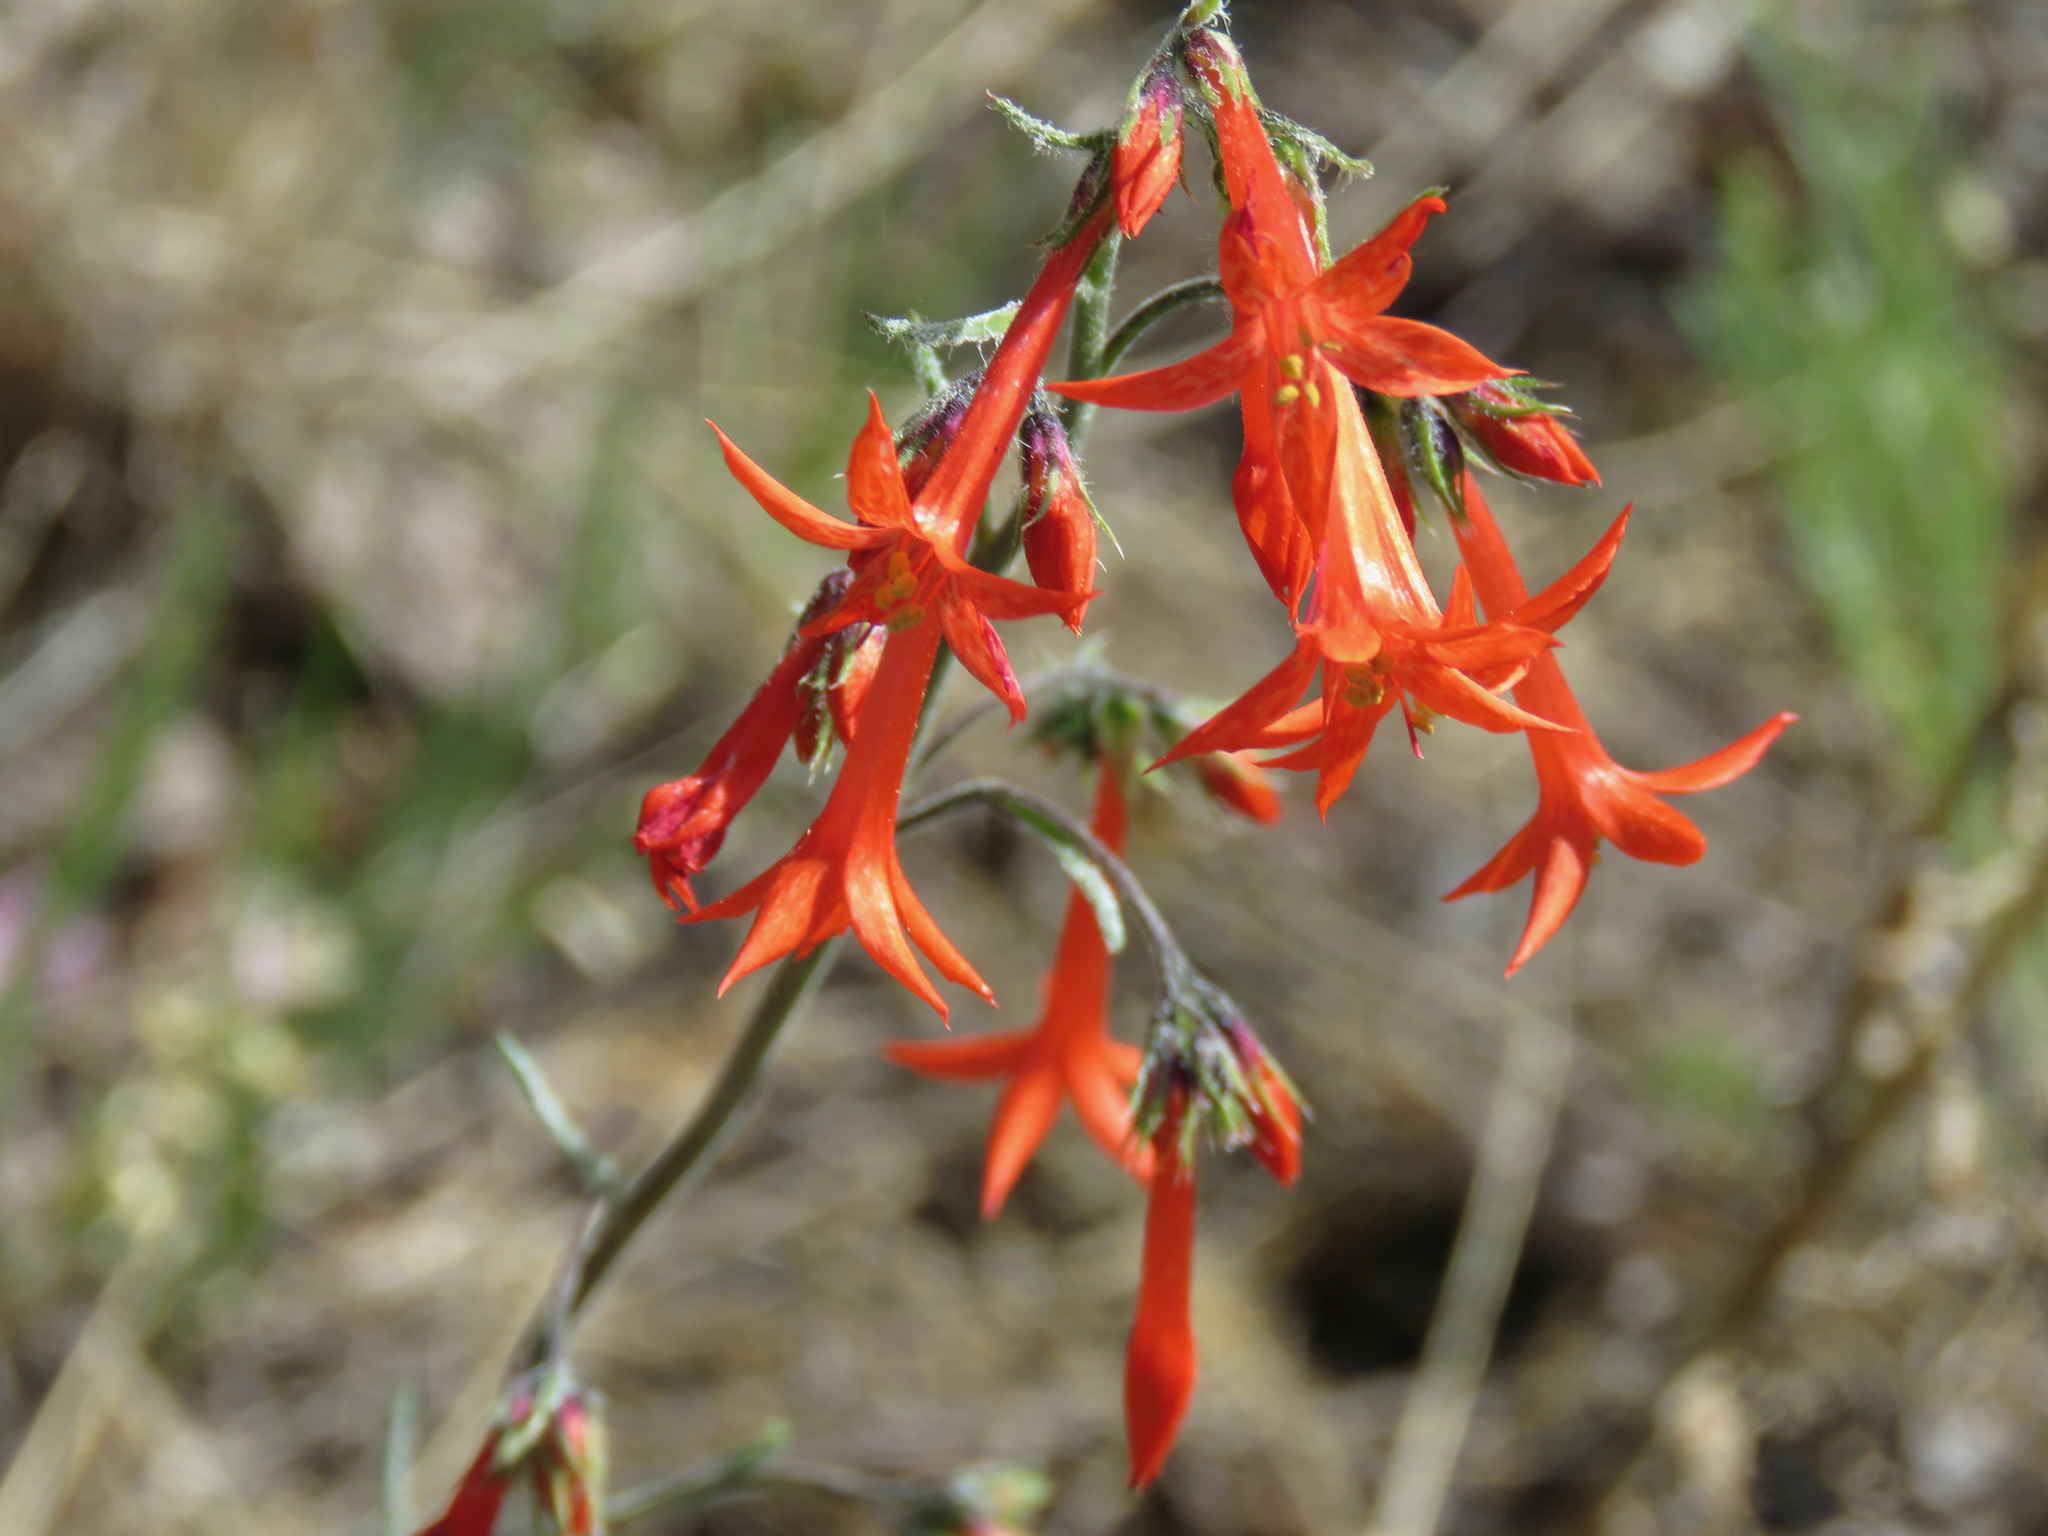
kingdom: Plantae
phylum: Tracheophyta
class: Magnoliopsida
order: Ericales
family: Polemoniaceae
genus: Ipomopsis
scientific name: Ipomopsis aggregata
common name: Scarlet gilia
